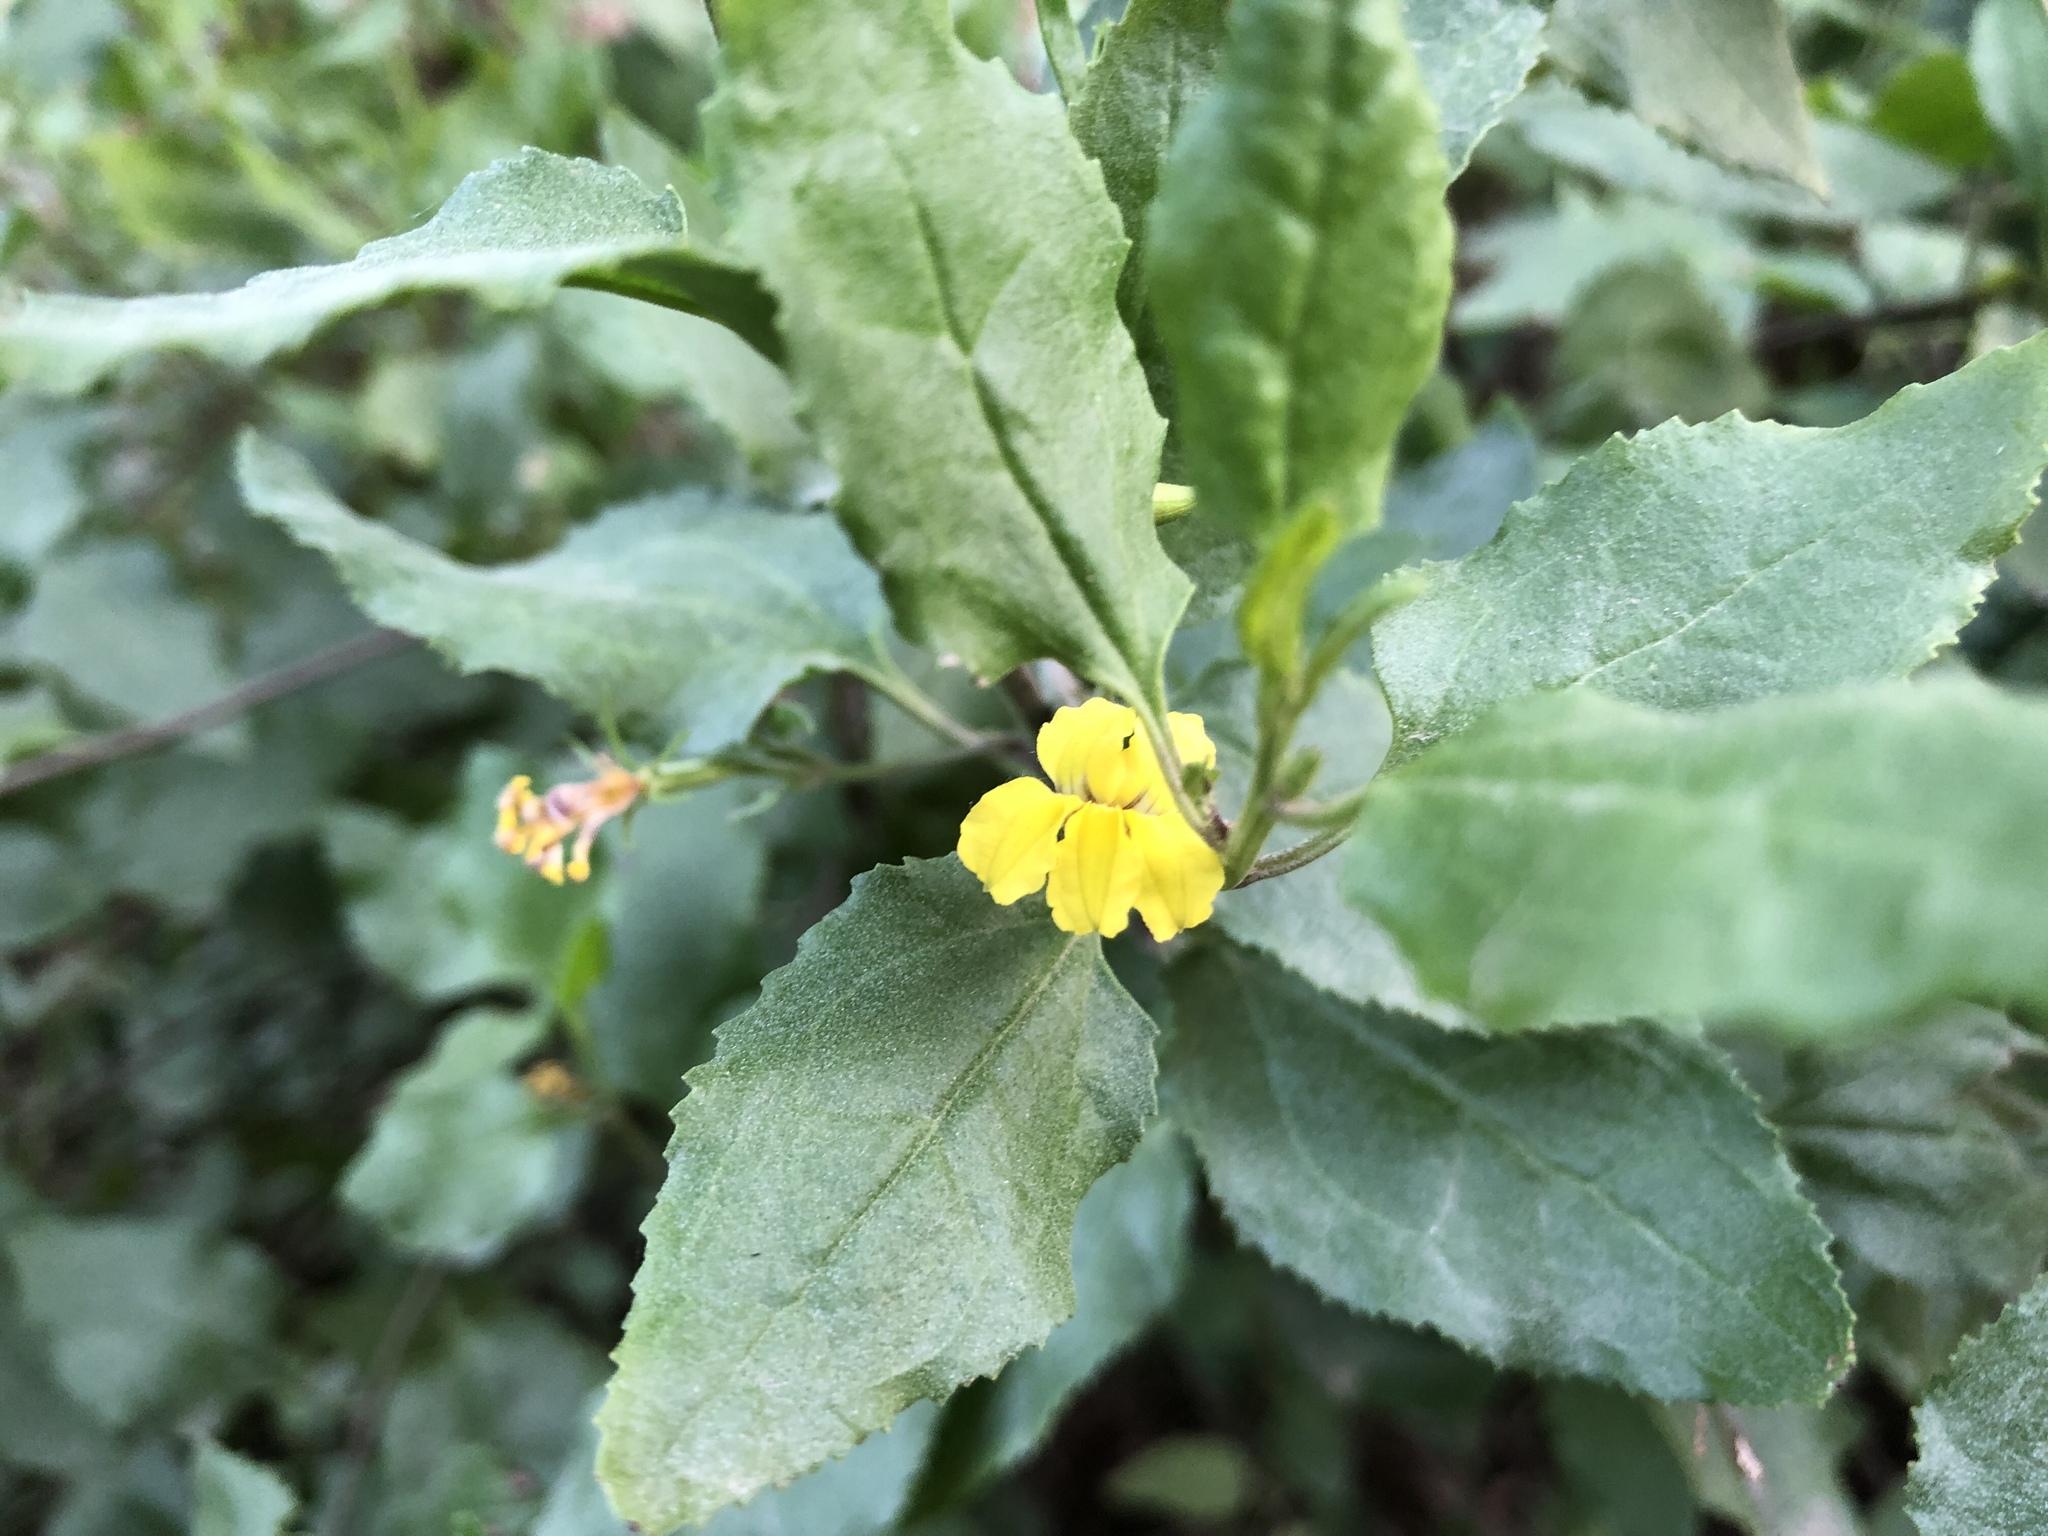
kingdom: Plantae
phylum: Tracheophyta
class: Magnoliopsida
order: Asterales
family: Goodeniaceae
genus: Goodenia
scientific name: Goodenia ovata
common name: Hop goodenia
